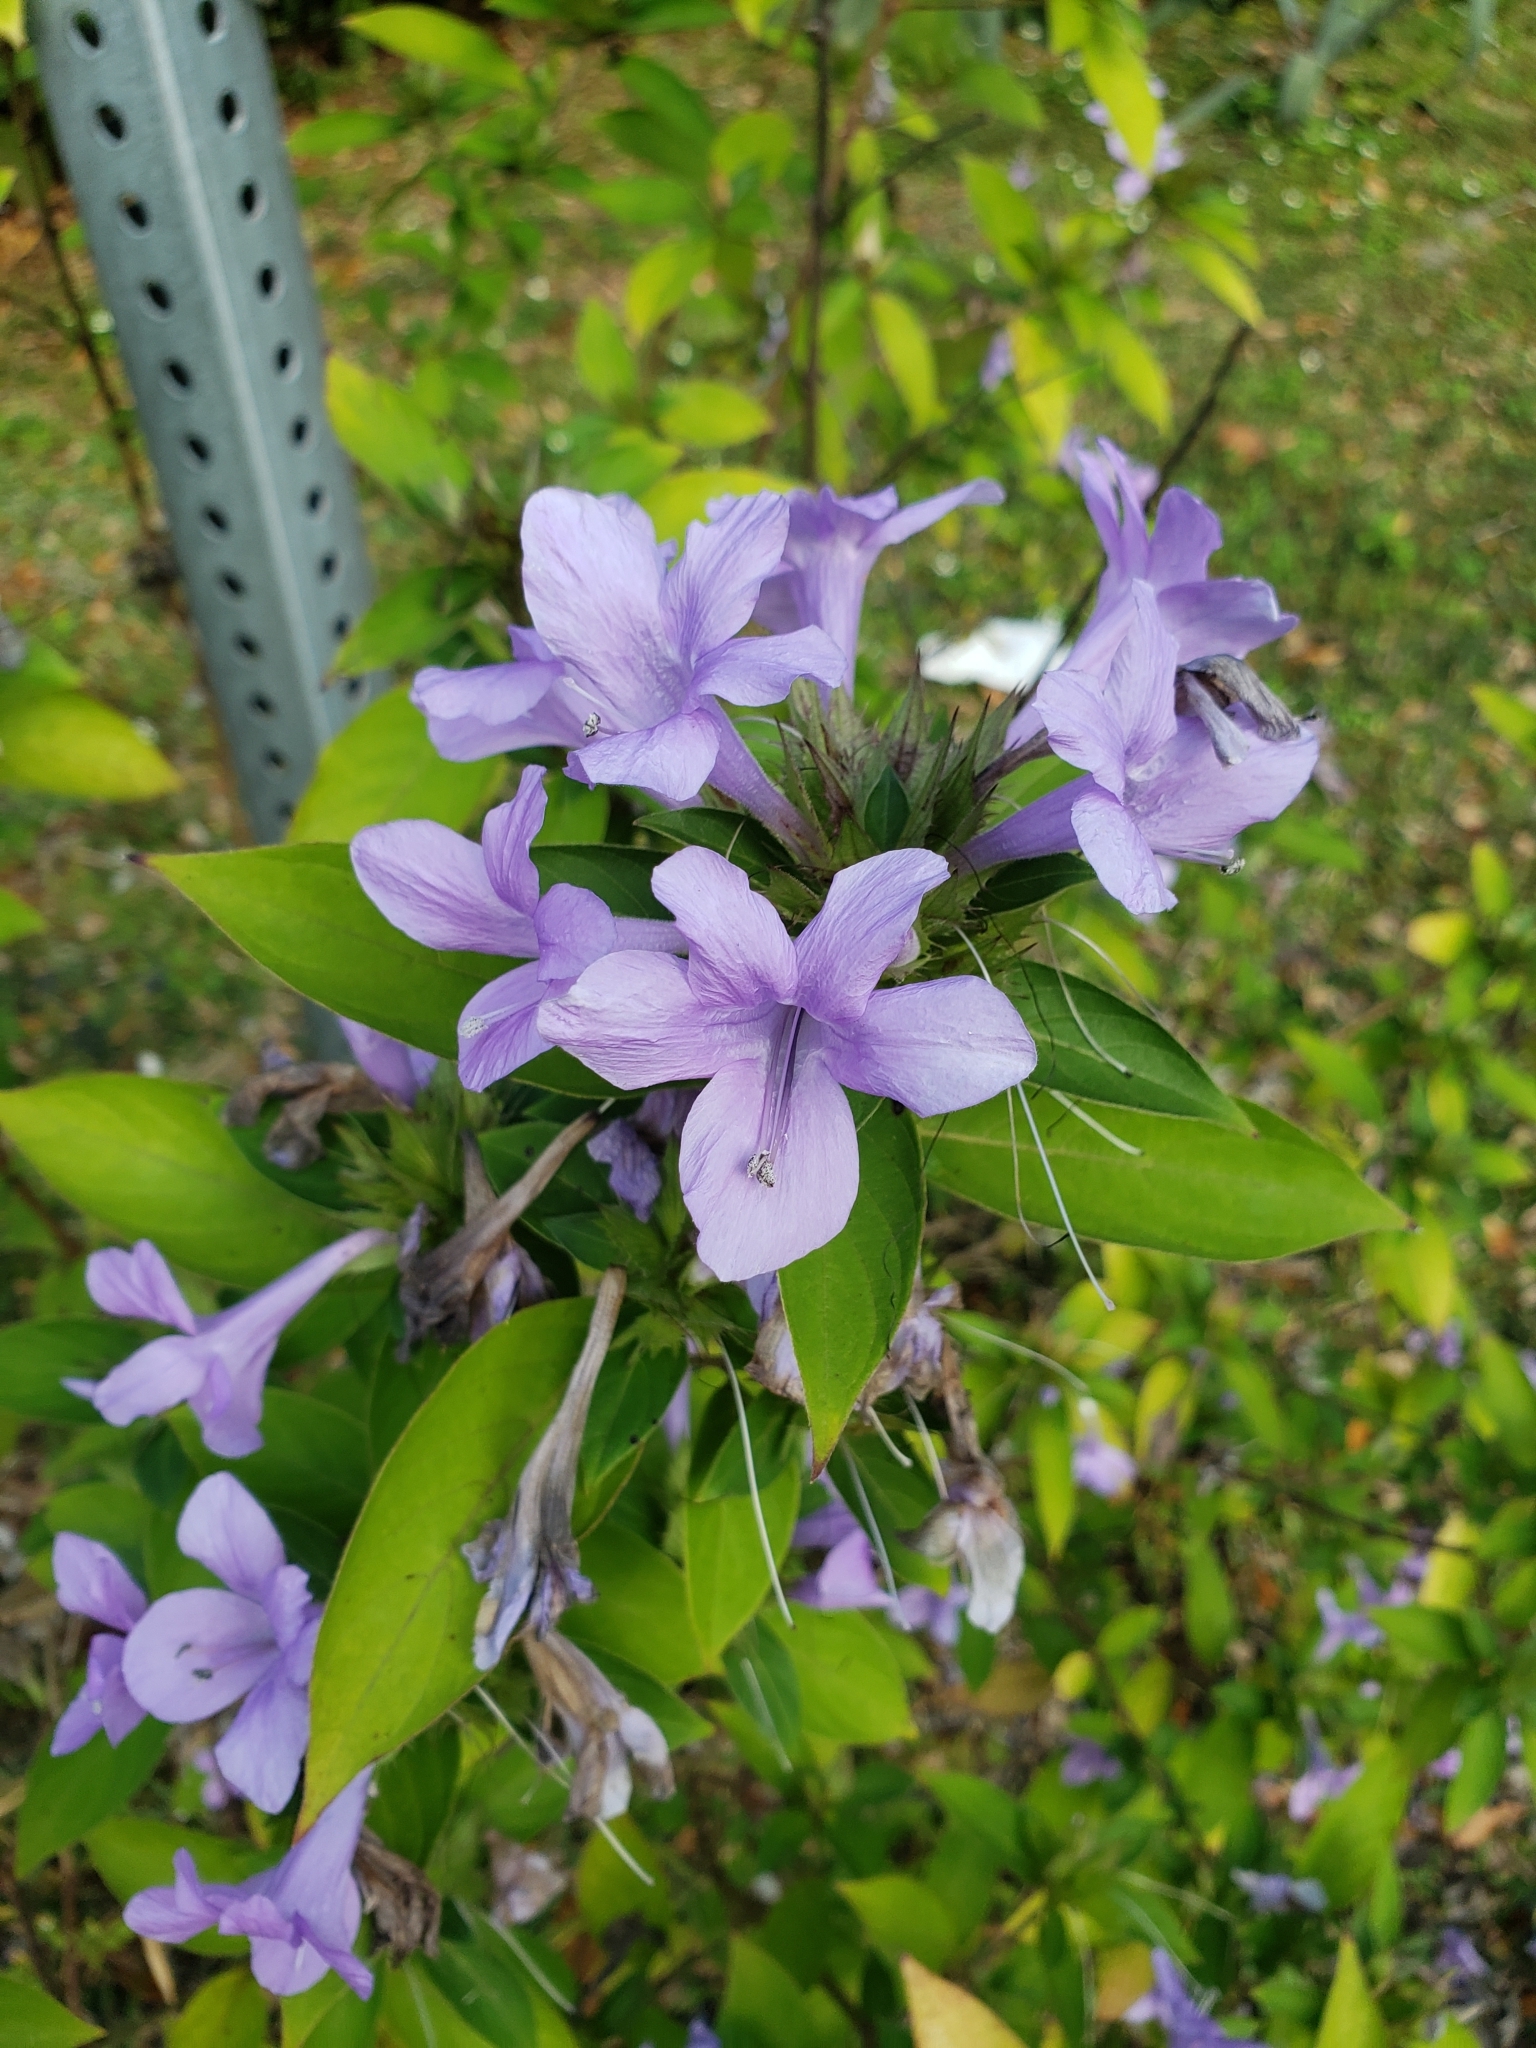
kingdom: Plantae
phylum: Tracheophyta
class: Magnoliopsida
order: Lamiales
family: Acanthaceae
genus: Barleria
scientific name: Barleria cristata
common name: Crested philippine violet
